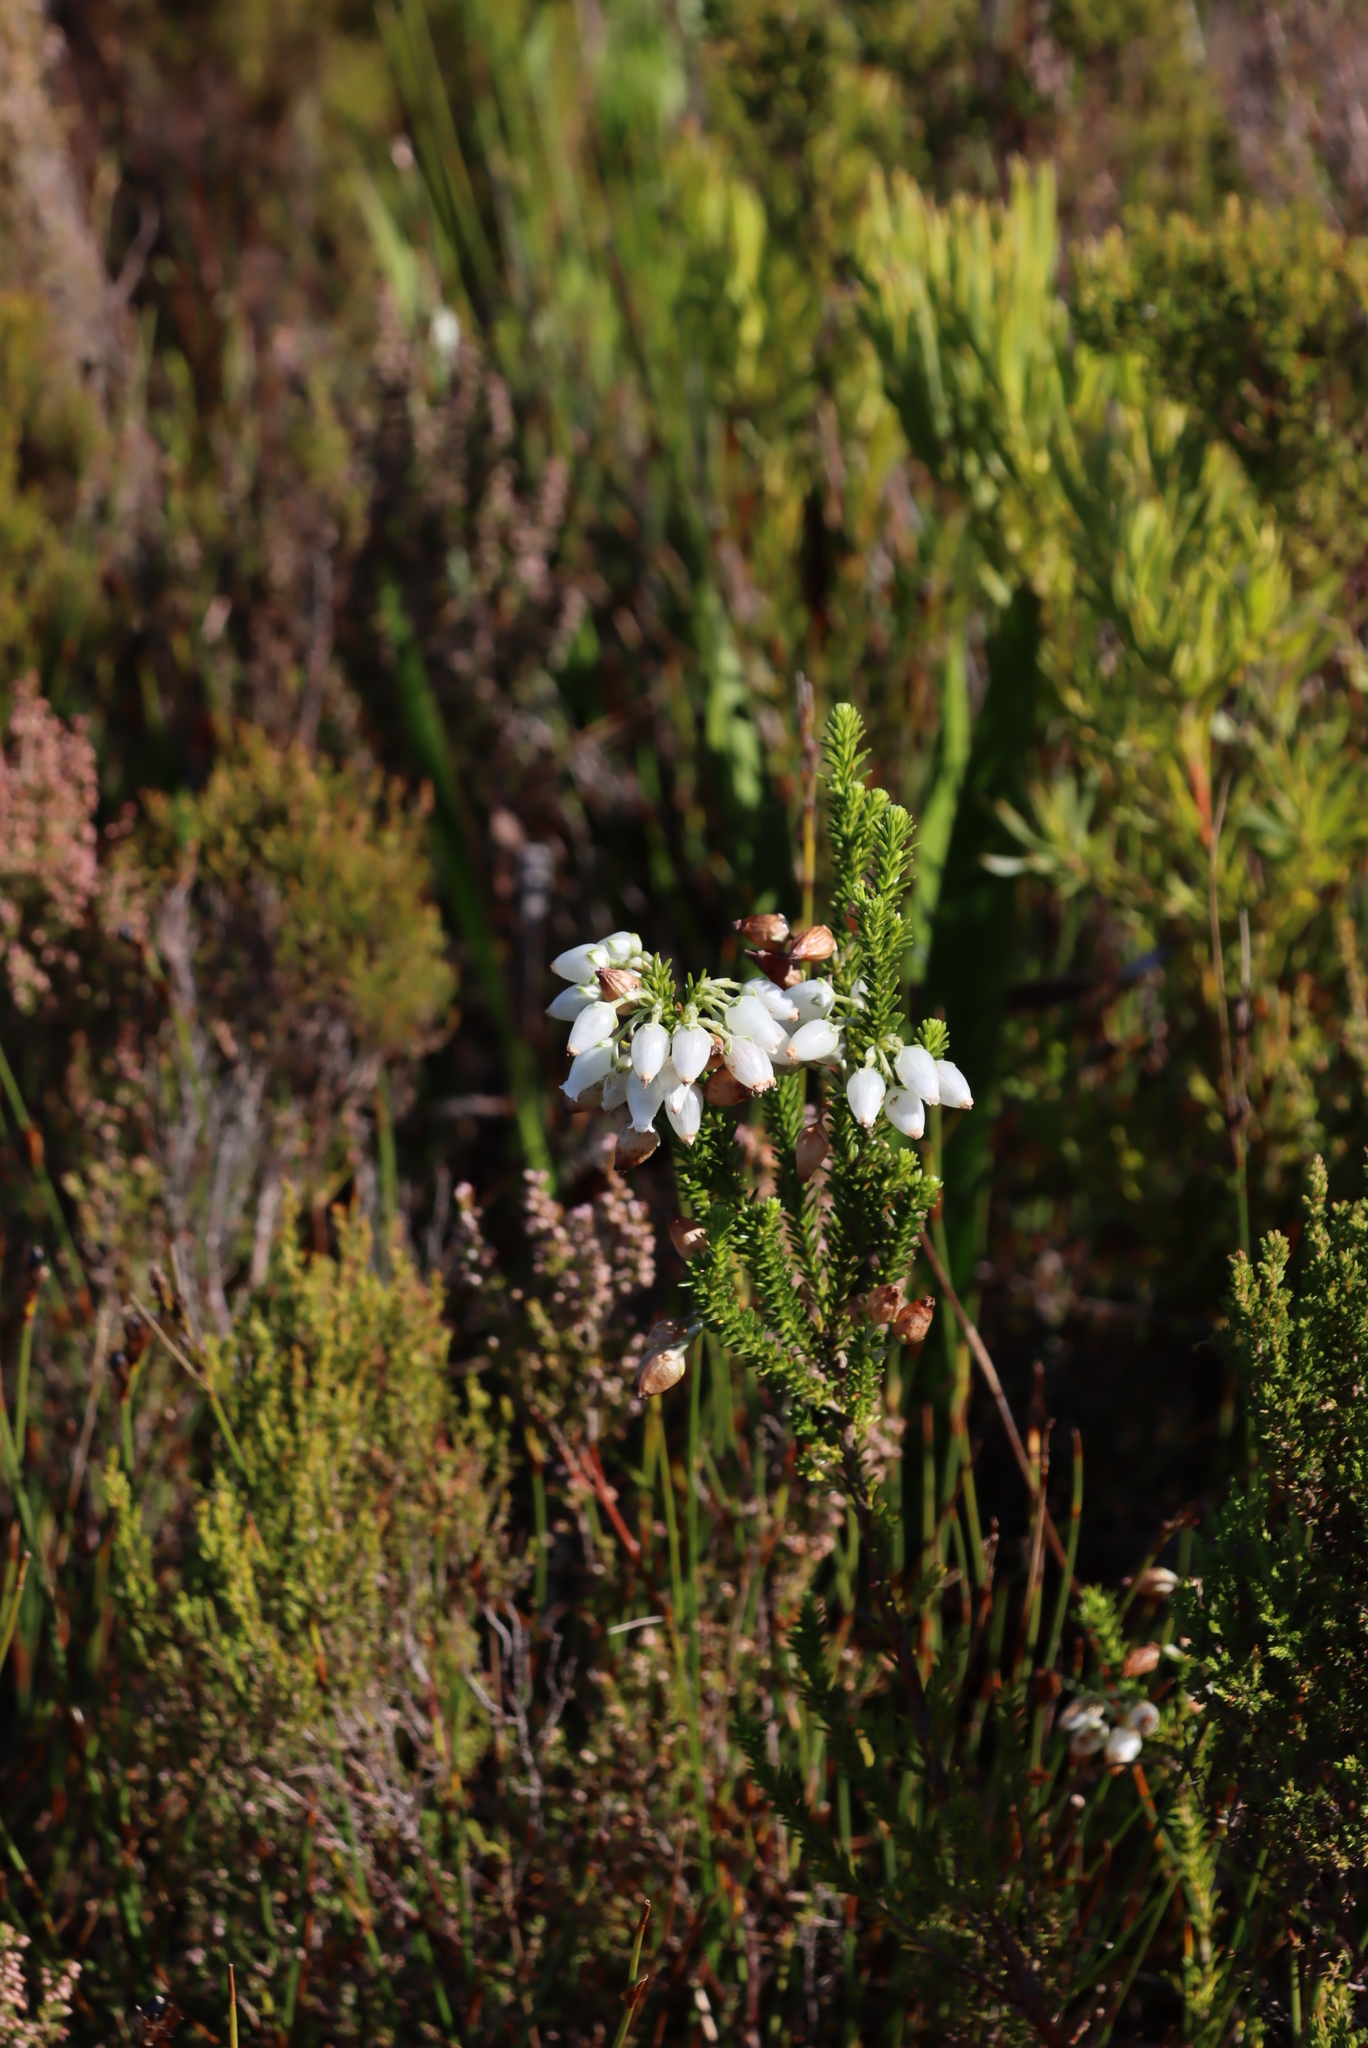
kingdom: Plantae
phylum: Tracheophyta
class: Magnoliopsida
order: Ericales
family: Ericaceae
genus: Erica
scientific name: Erica physodes
